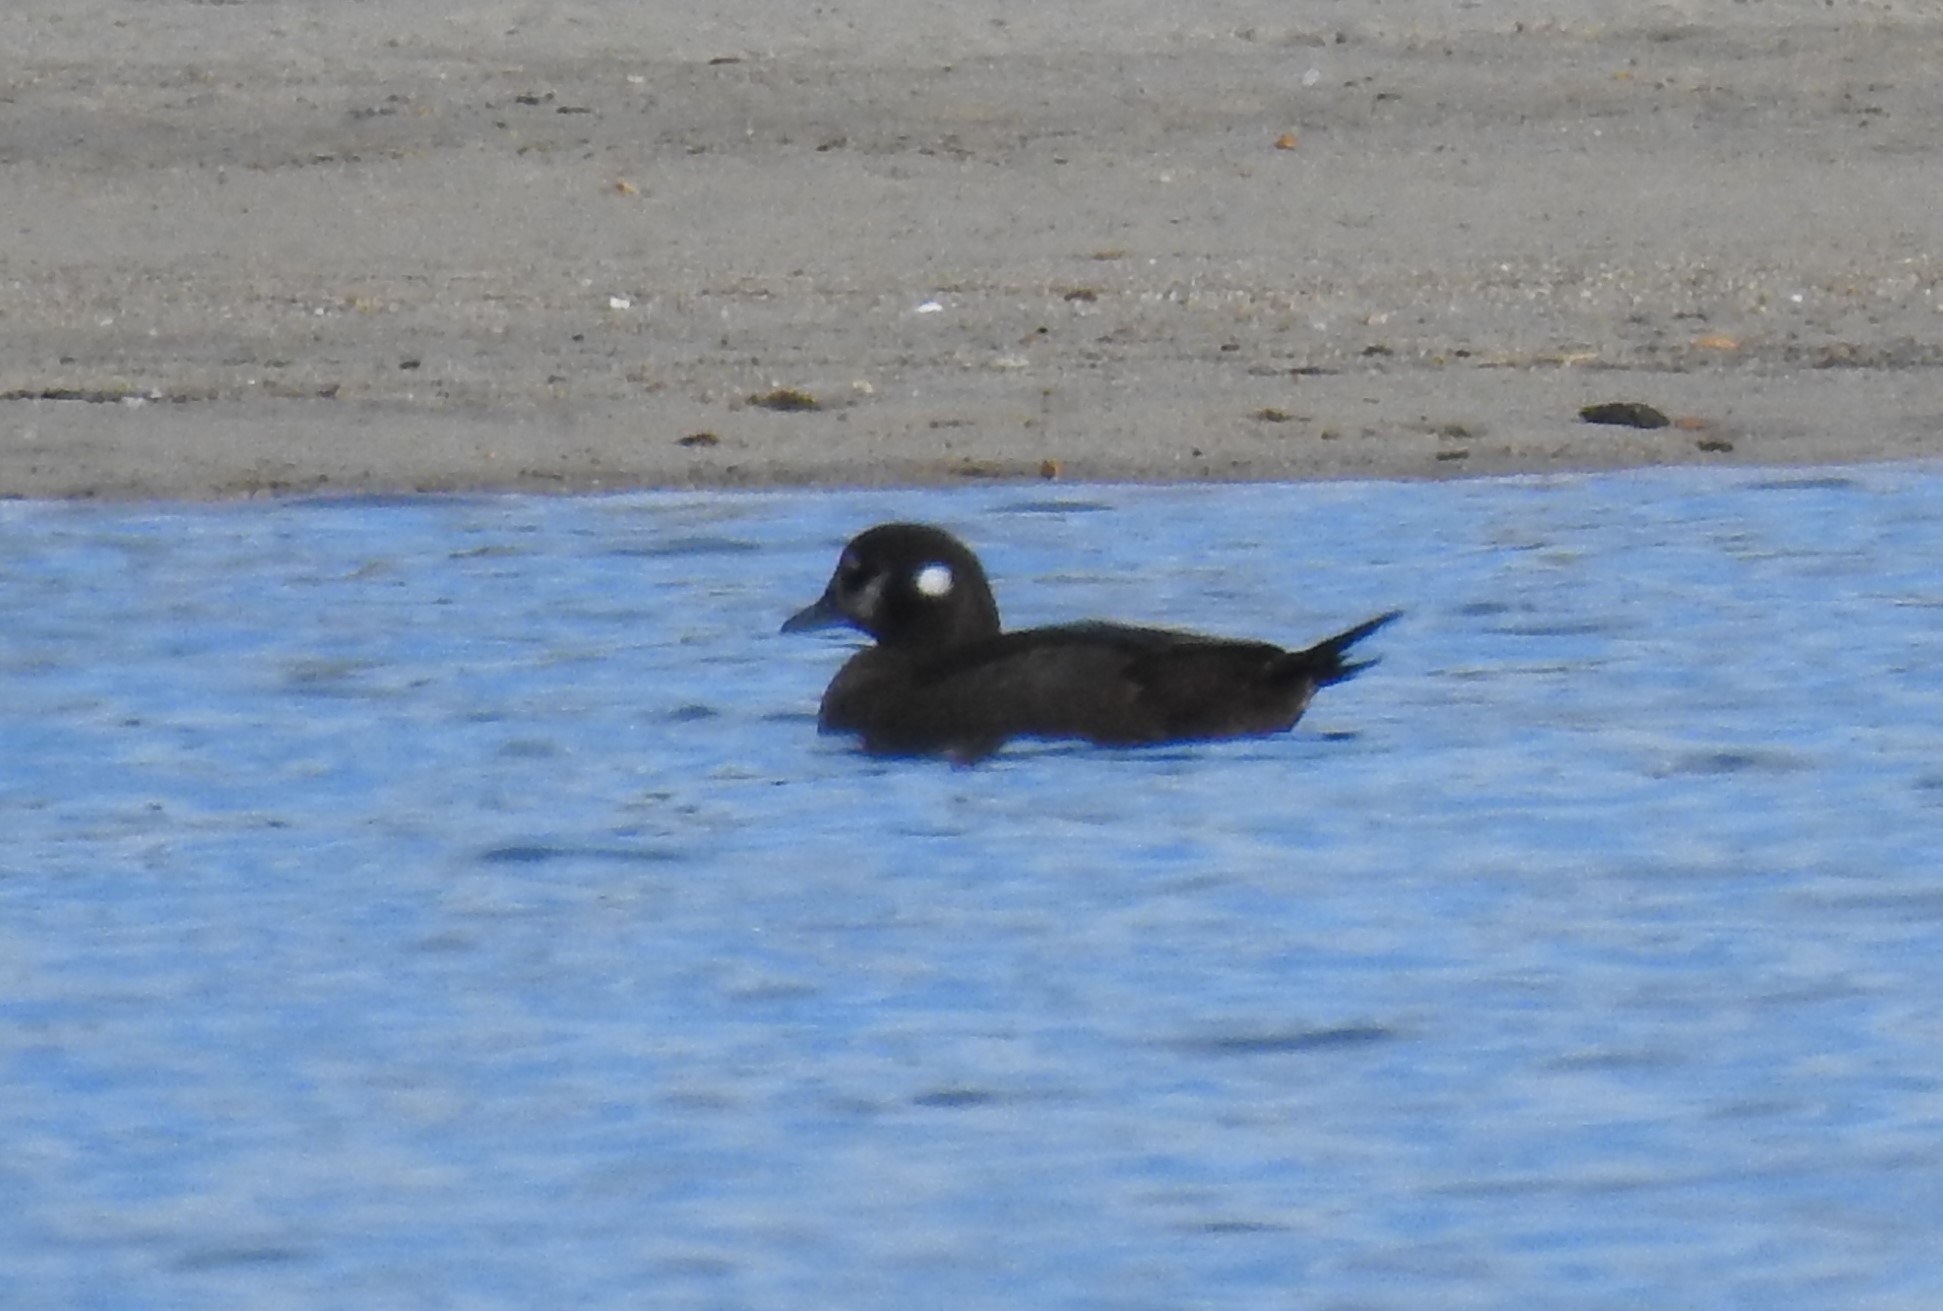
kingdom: Animalia
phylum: Chordata
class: Aves
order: Anseriformes
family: Anatidae
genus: Histrionicus
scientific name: Histrionicus histrionicus
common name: Harlequin duck
